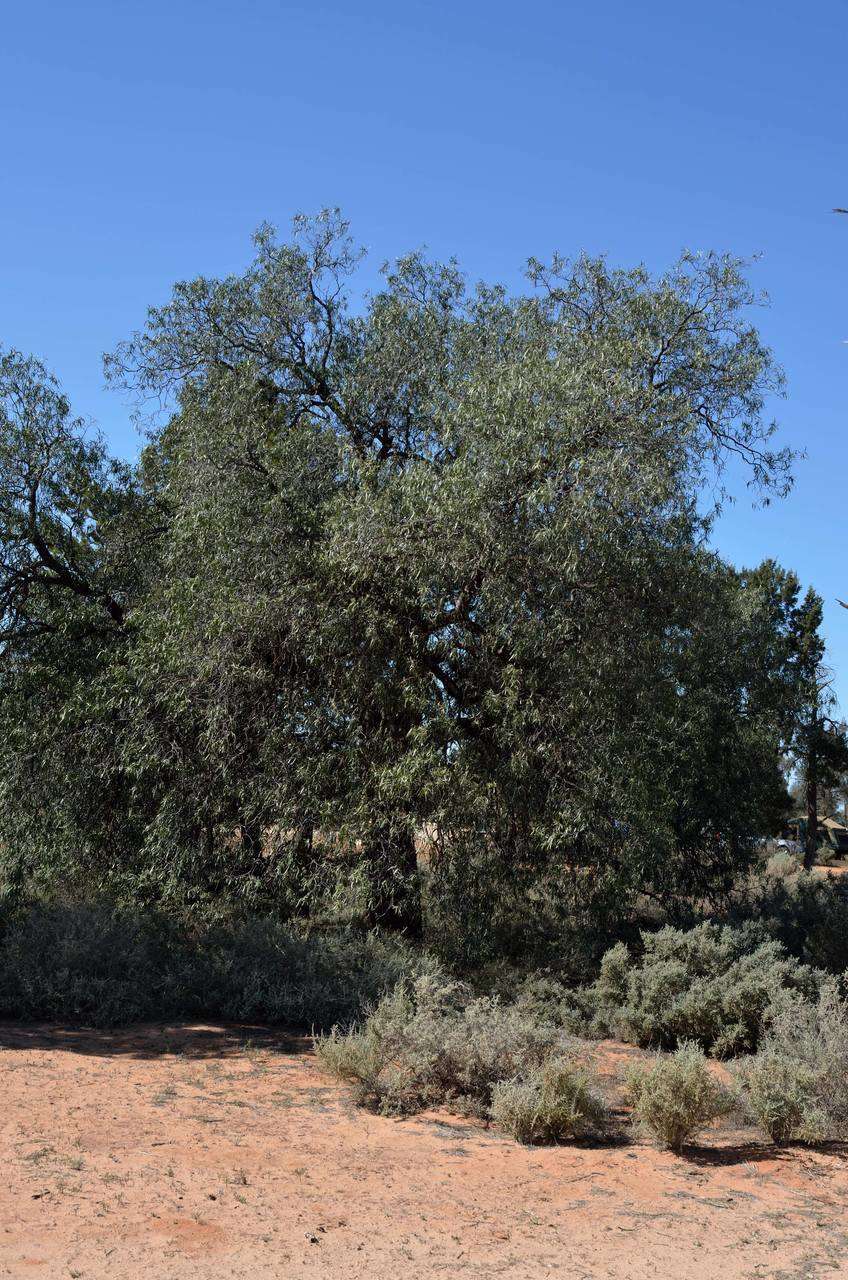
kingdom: Plantae
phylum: Tracheophyta
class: Magnoliopsida
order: Sapindales
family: Rutaceae
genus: Geijera
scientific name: Geijera parviflora
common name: Wilga
